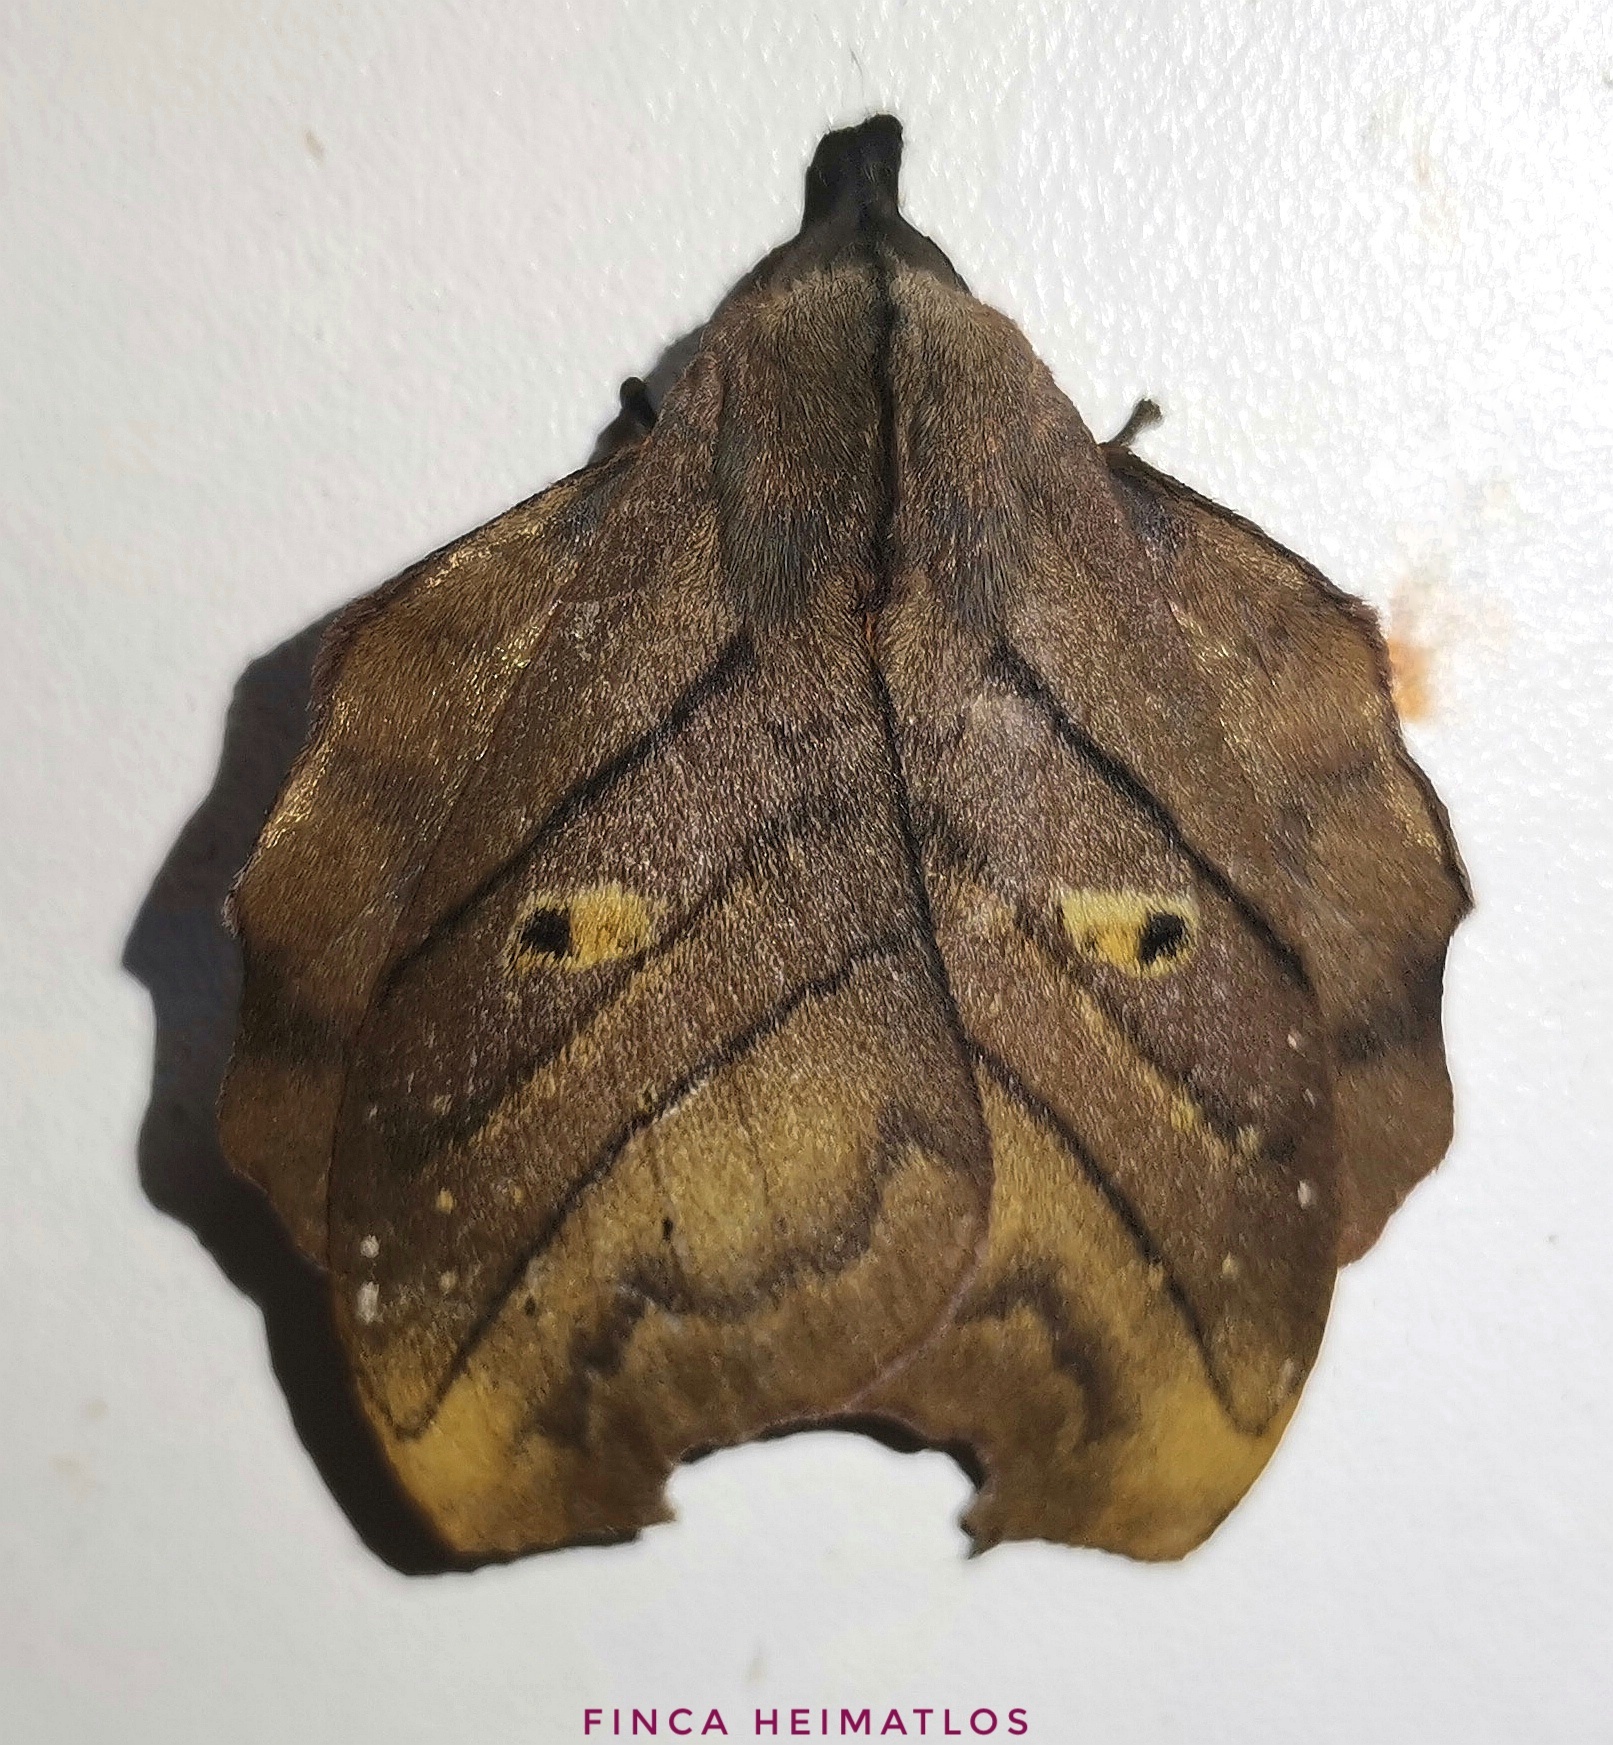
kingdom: Animalia
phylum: Arthropoda
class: Insecta
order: Lepidoptera
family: Saturniidae
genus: Hyperchiria
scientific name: Hyperchiria nausica
